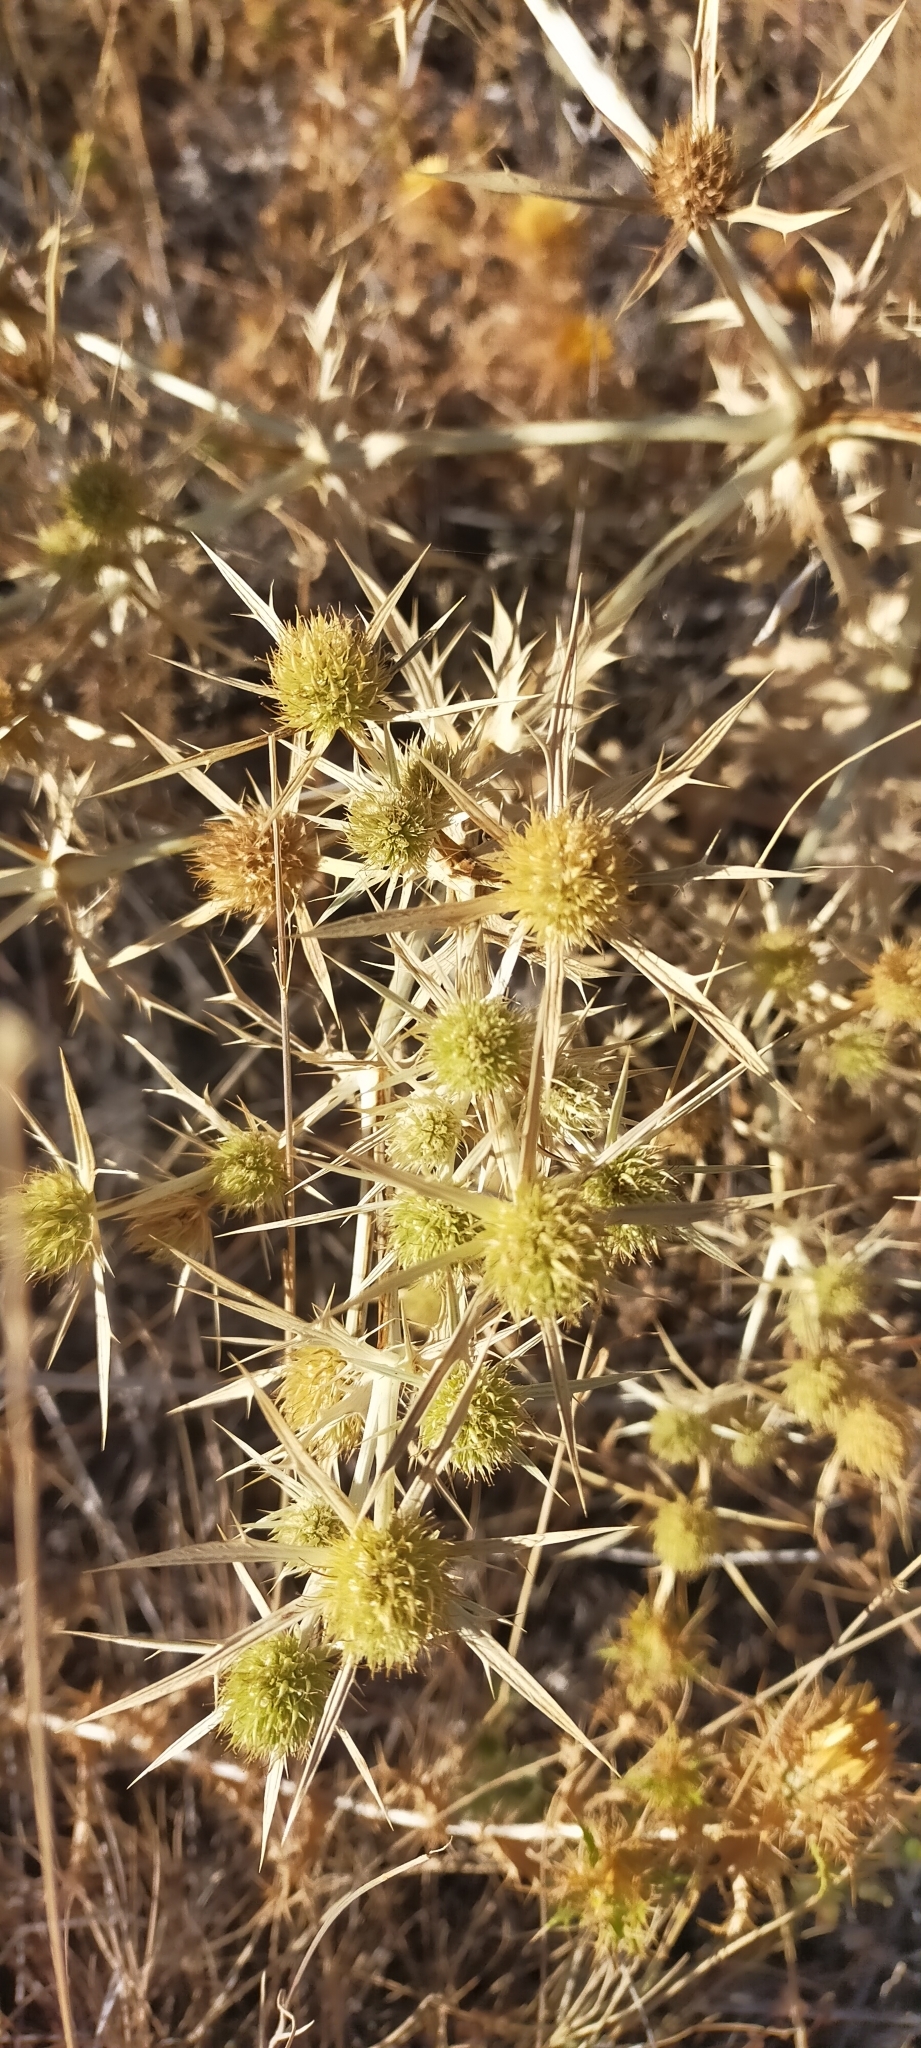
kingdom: Plantae
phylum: Tracheophyta
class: Magnoliopsida
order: Apiales
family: Apiaceae
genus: Eryngium
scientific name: Eryngium campestre
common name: Field eryngo
